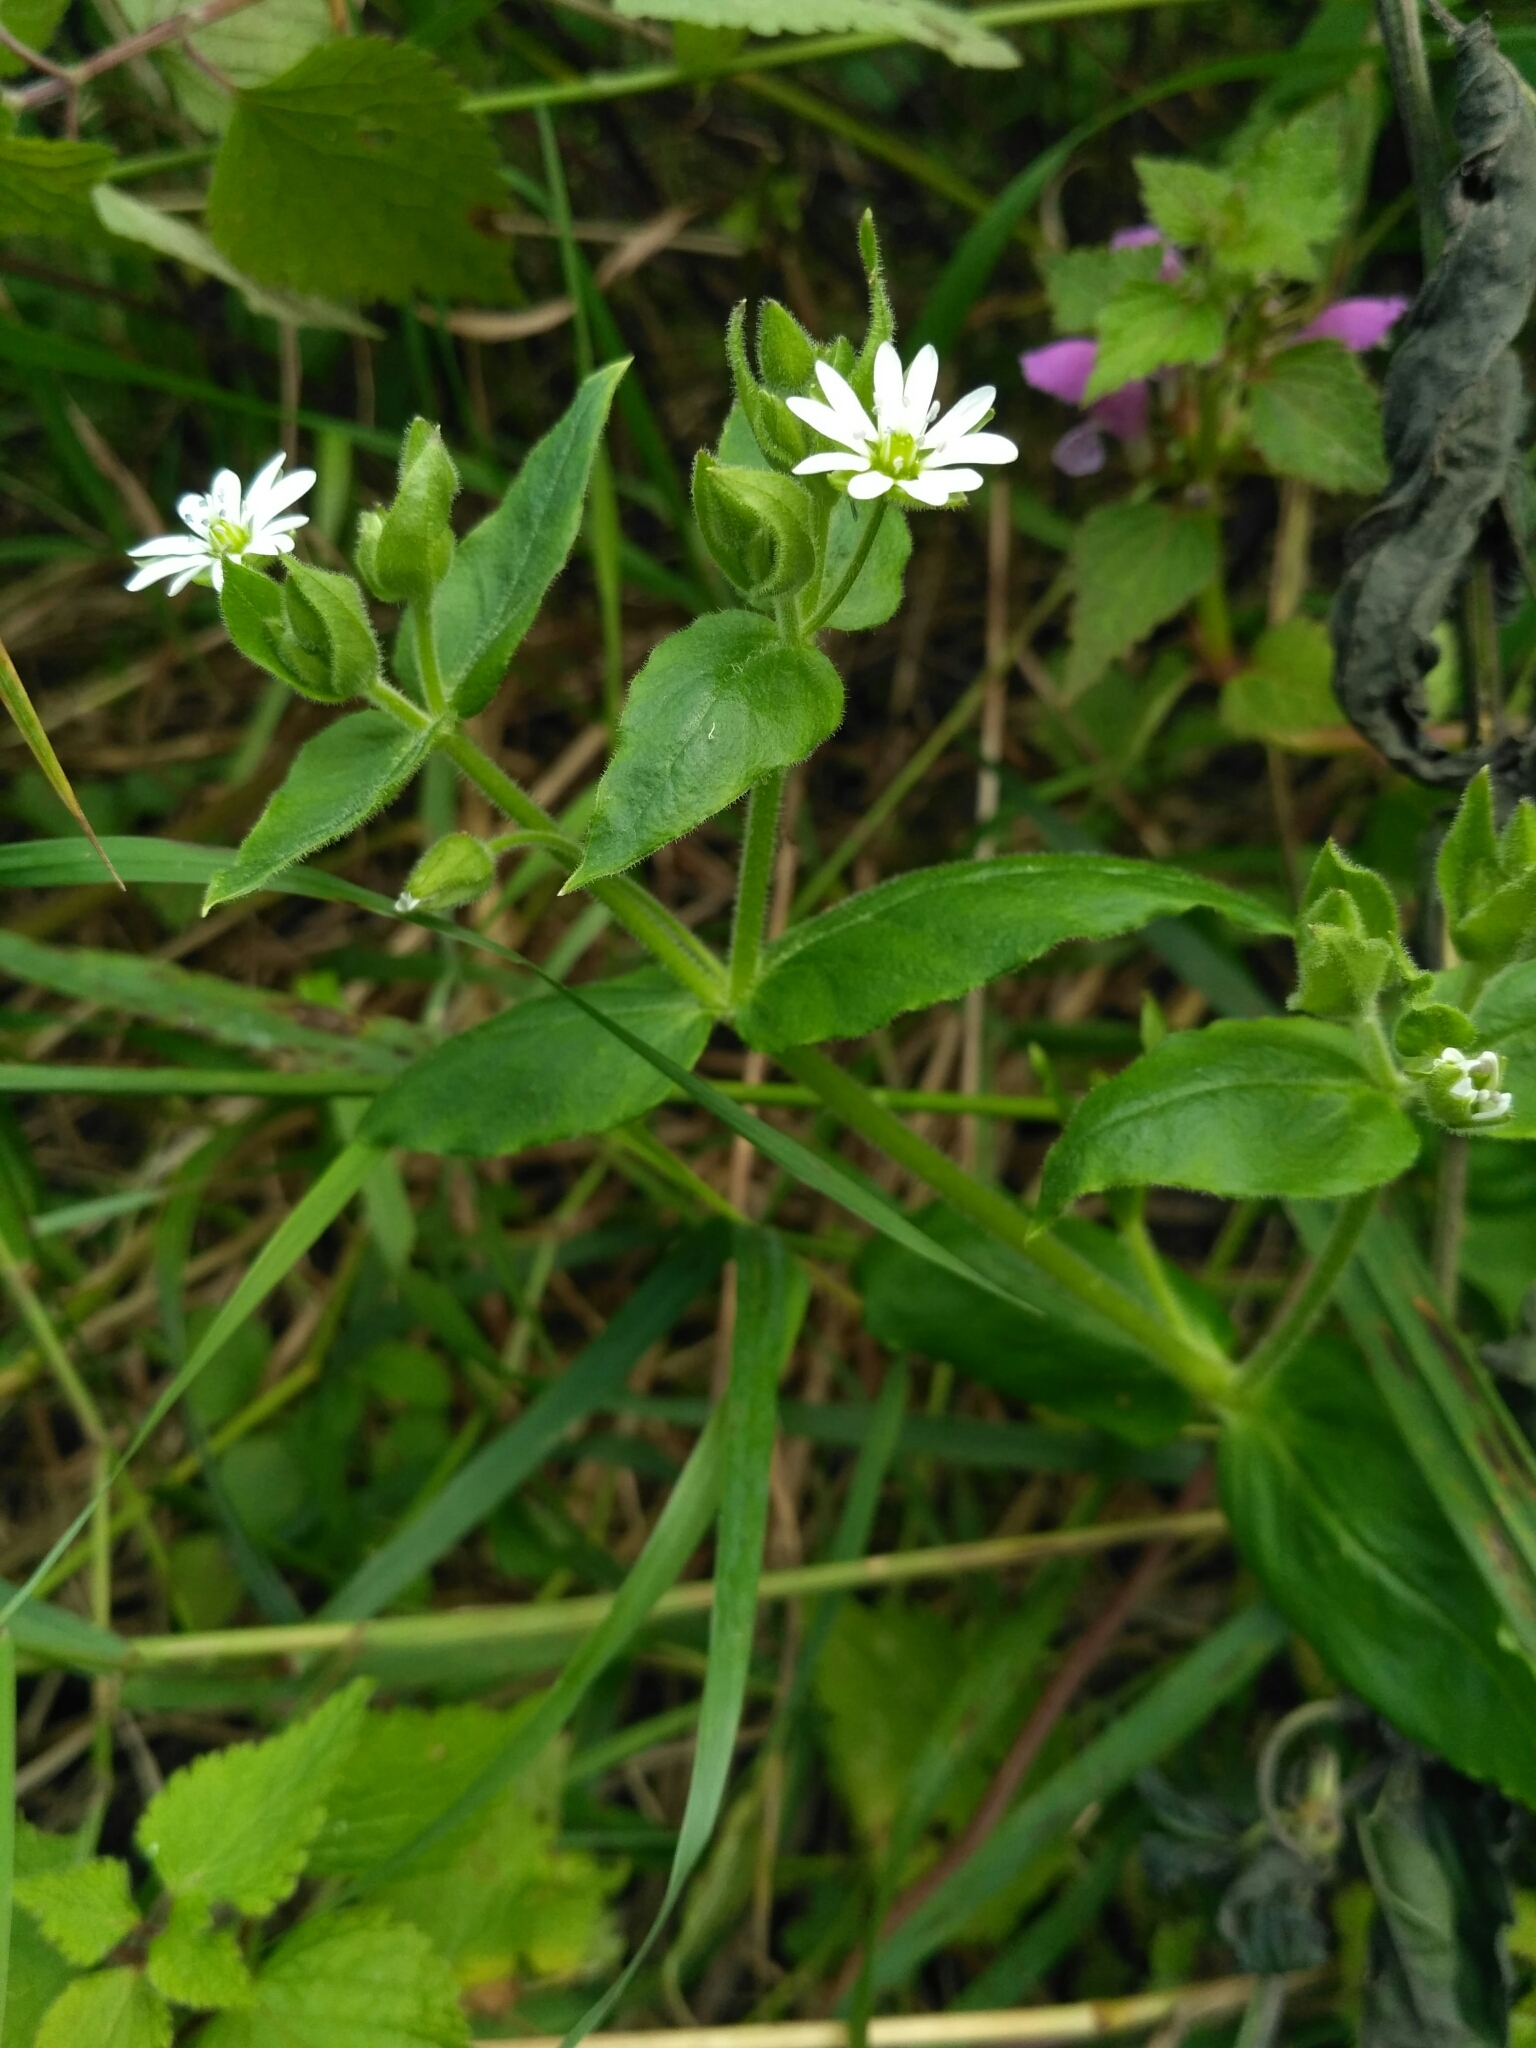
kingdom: Plantae
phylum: Tracheophyta
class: Magnoliopsida
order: Caryophyllales
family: Caryophyllaceae
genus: Stellaria
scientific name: Stellaria aquatica
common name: Water chickweed
